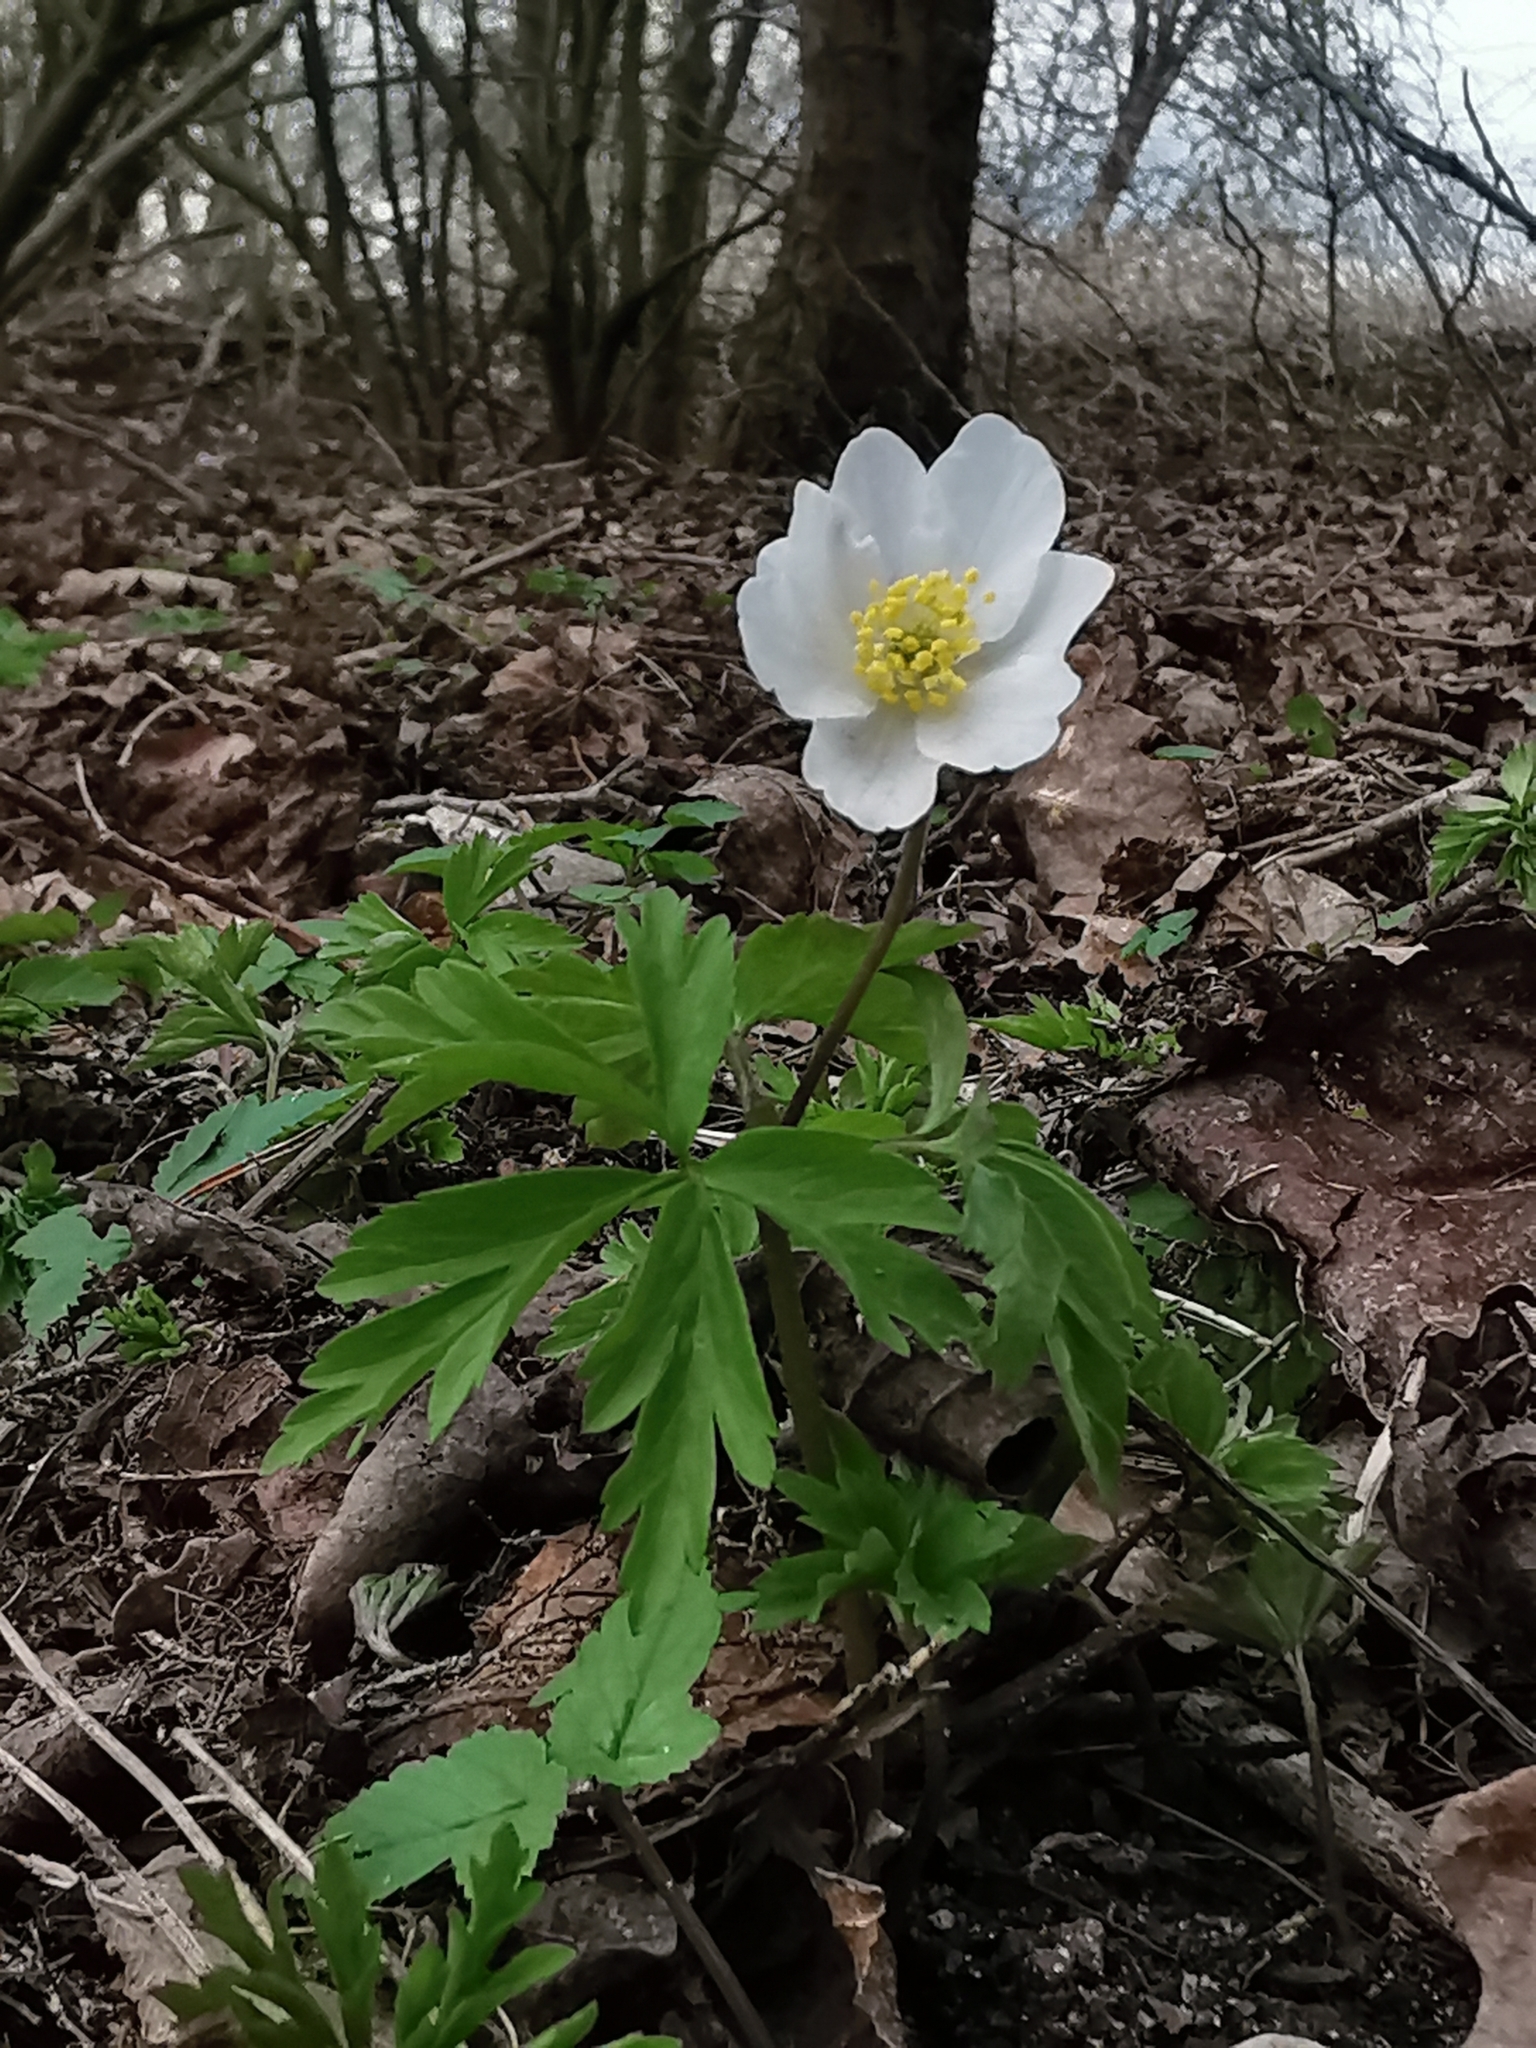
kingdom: Plantae
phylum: Tracheophyta
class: Magnoliopsida
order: Ranunculales
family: Ranunculaceae
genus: Anemone
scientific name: Anemone nemorosa
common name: Wood anemone
